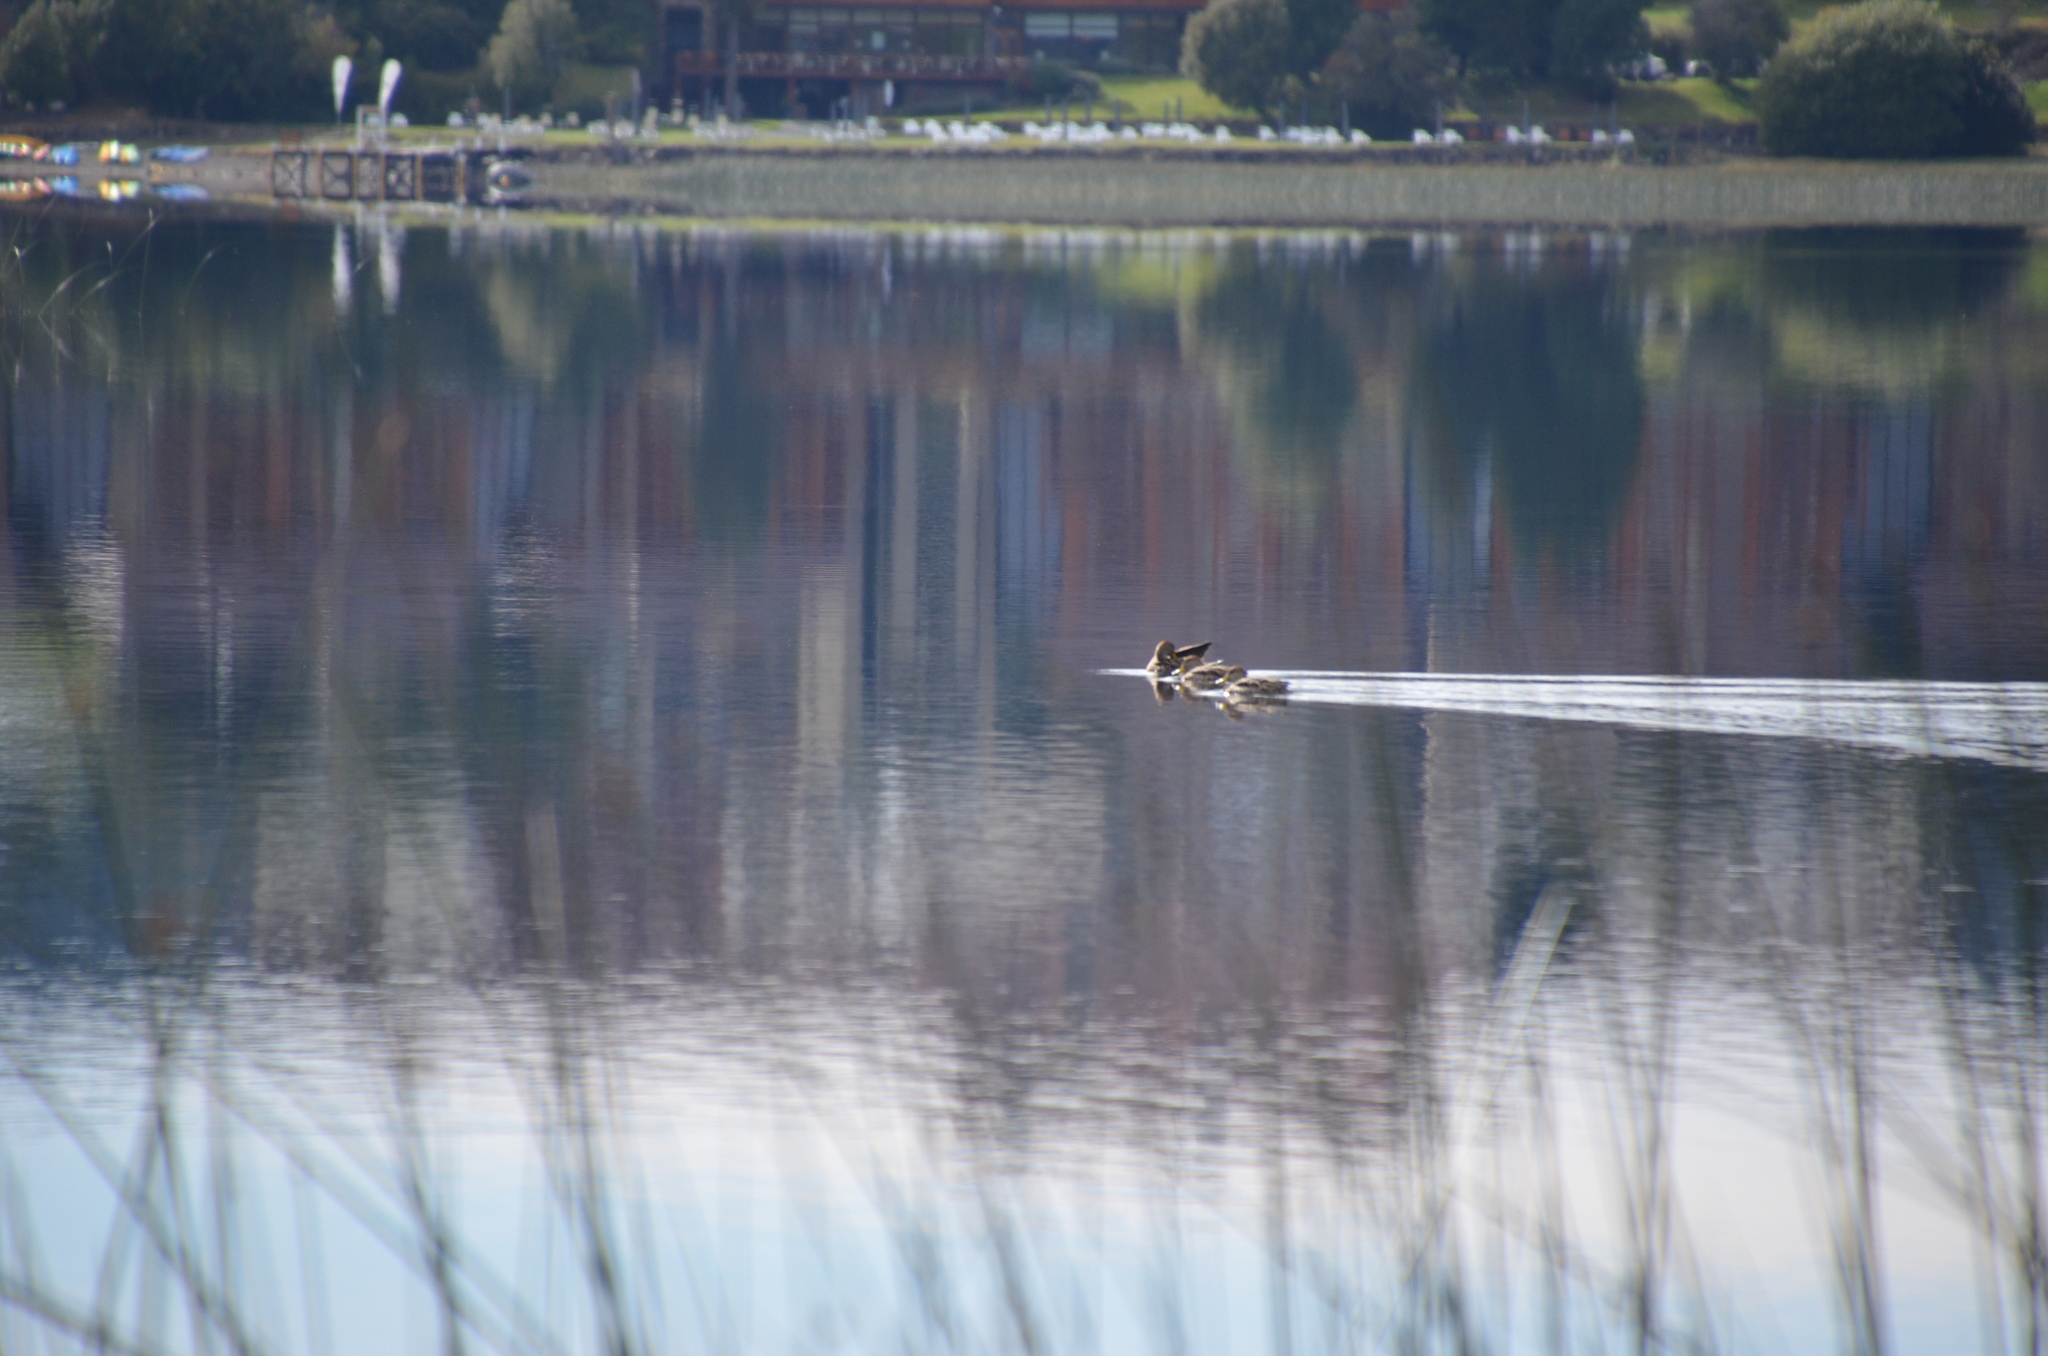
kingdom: Animalia
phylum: Chordata
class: Aves
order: Anseriformes
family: Anatidae
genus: Anas
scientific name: Anas georgica
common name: Yellow-billed pintail
